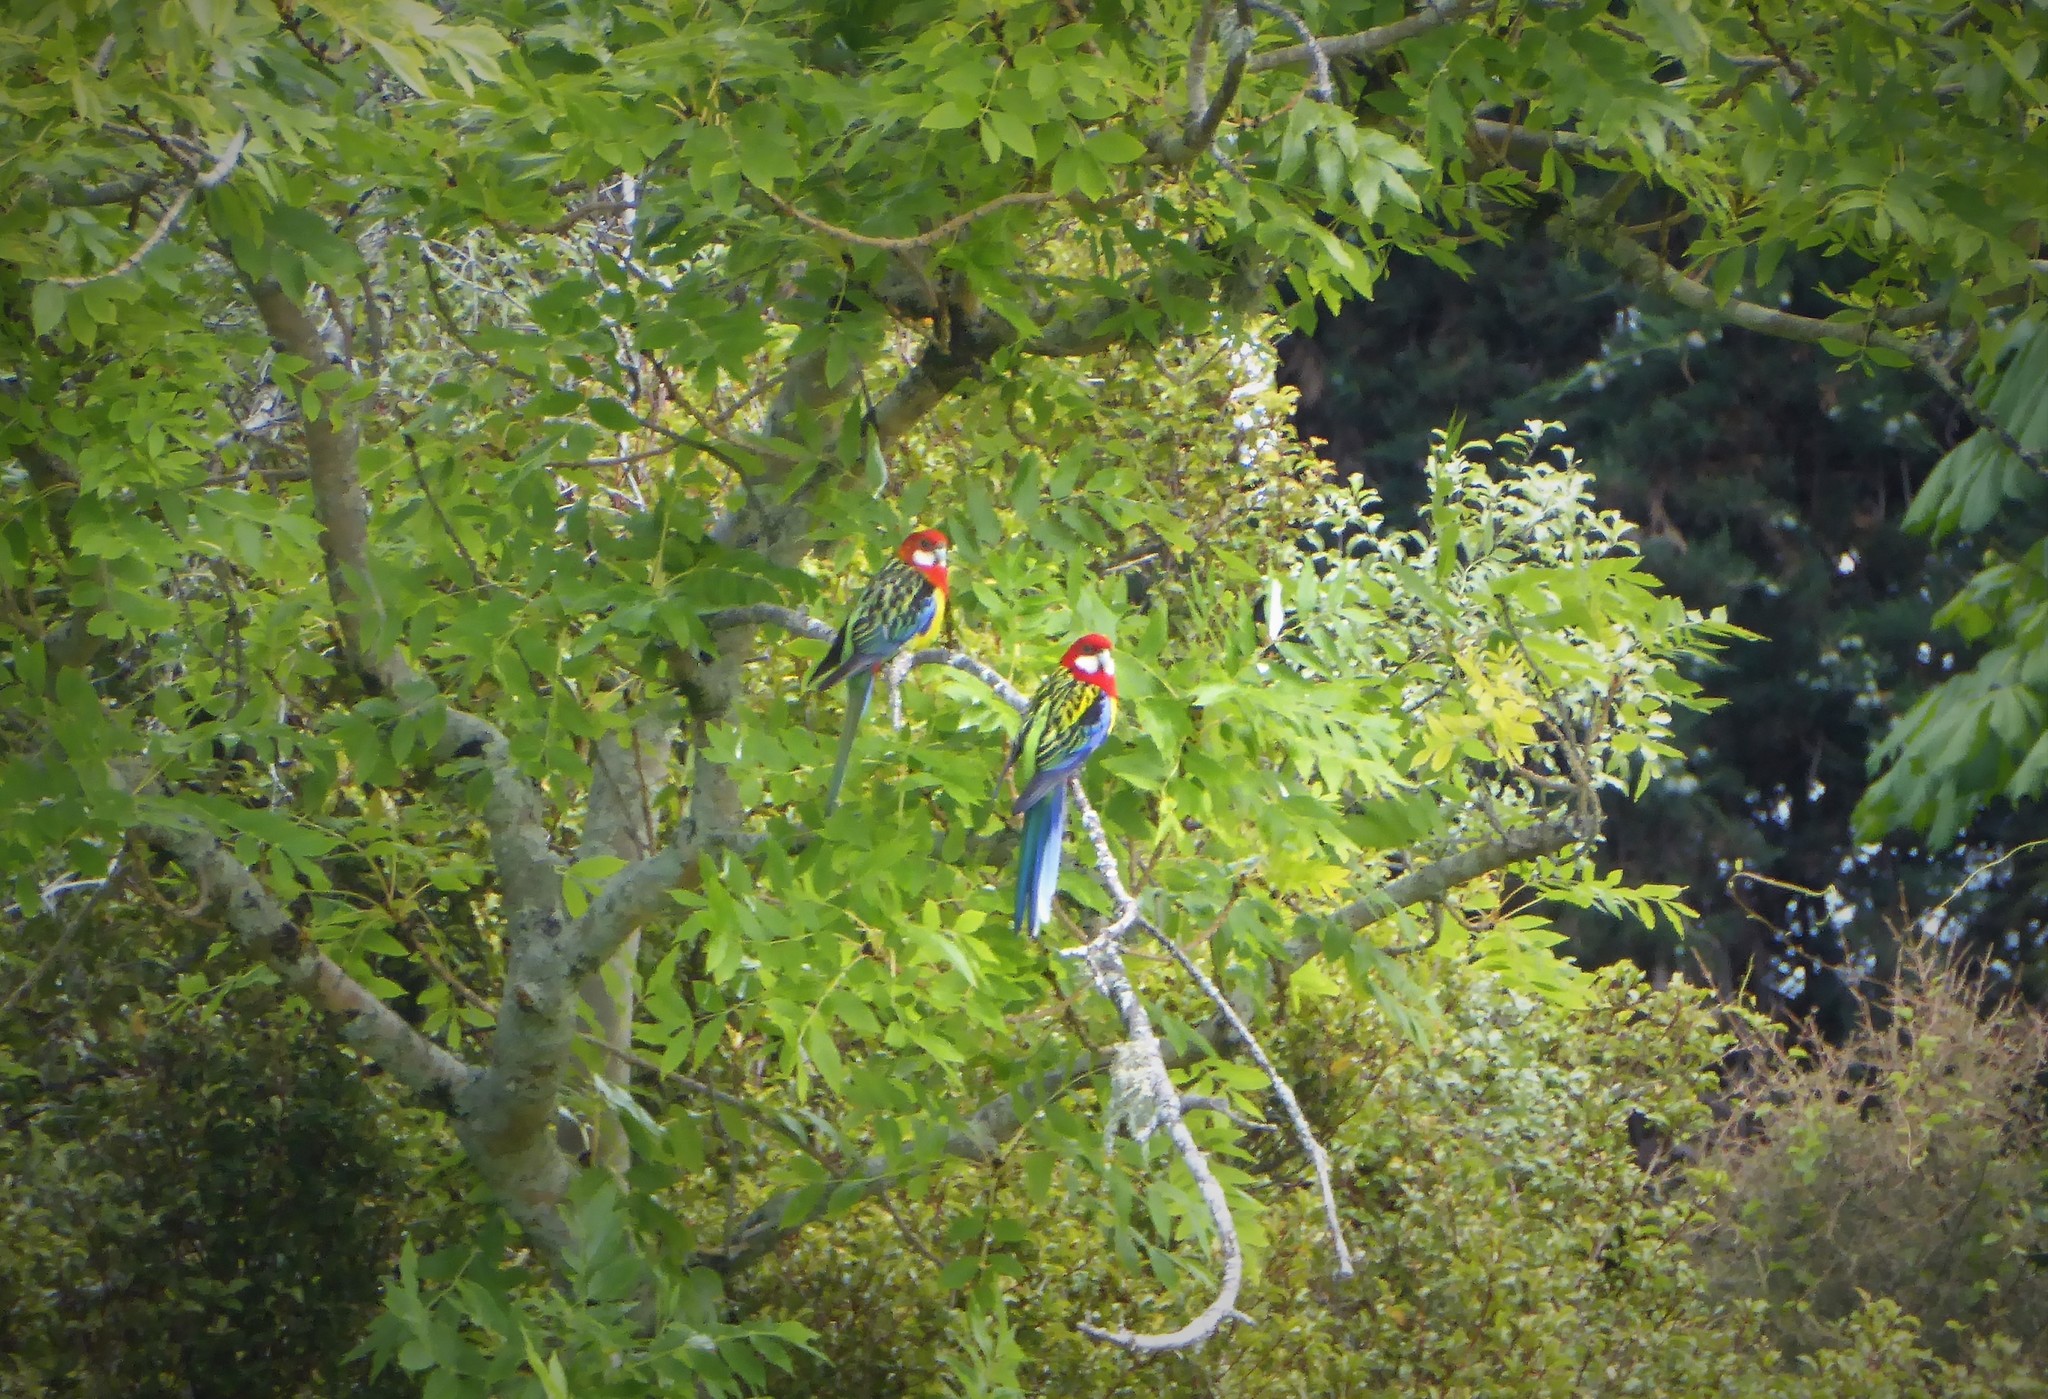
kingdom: Animalia
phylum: Chordata
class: Aves
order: Psittaciformes
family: Psittacidae
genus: Platycercus
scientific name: Platycercus eximius
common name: Eastern rosella
